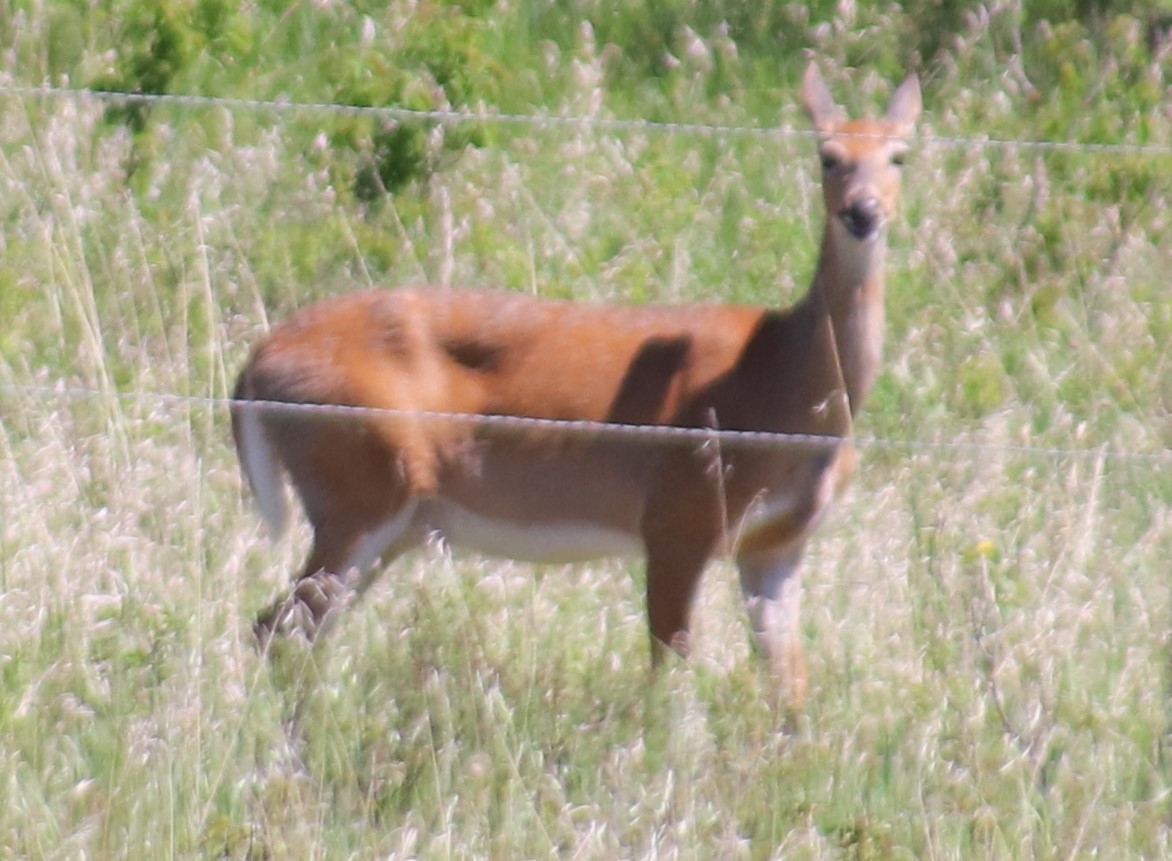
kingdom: Animalia
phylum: Chordata
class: Mammalia
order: Artiodactyla
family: Cervidae
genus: Odocoileus
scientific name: Odocoileus virginianus
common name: White-tailed deer
